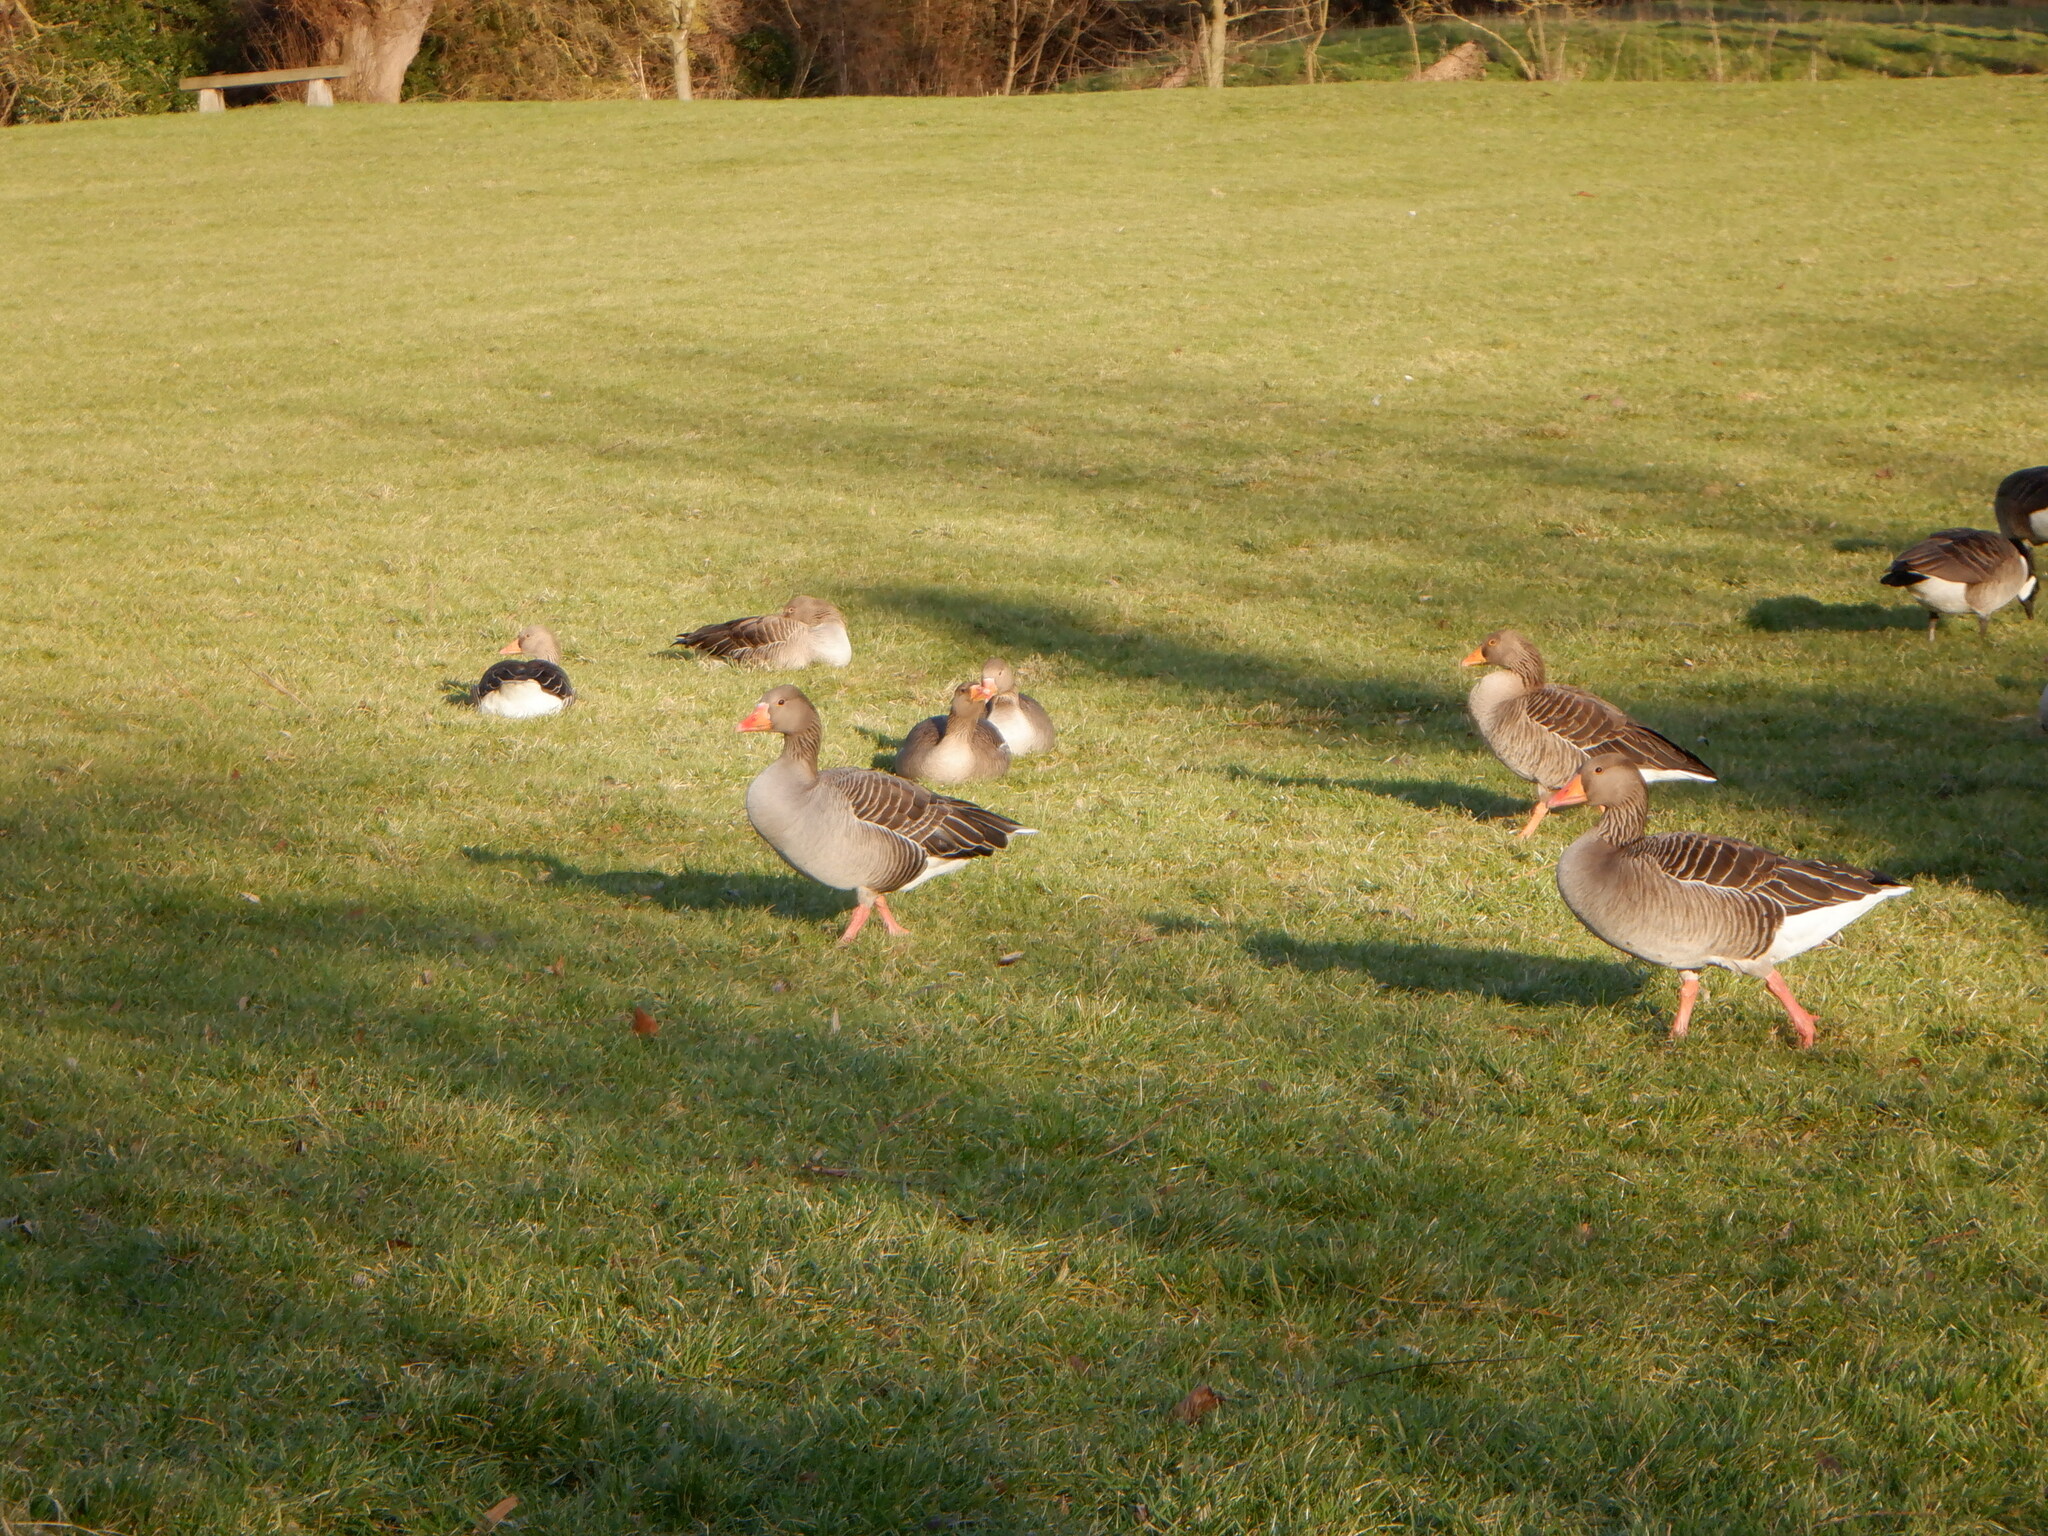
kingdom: Animalia
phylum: Chordata
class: Aves
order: Anseriformes
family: Anatidae
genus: Anser
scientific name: Anser anser
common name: Greylag goose
